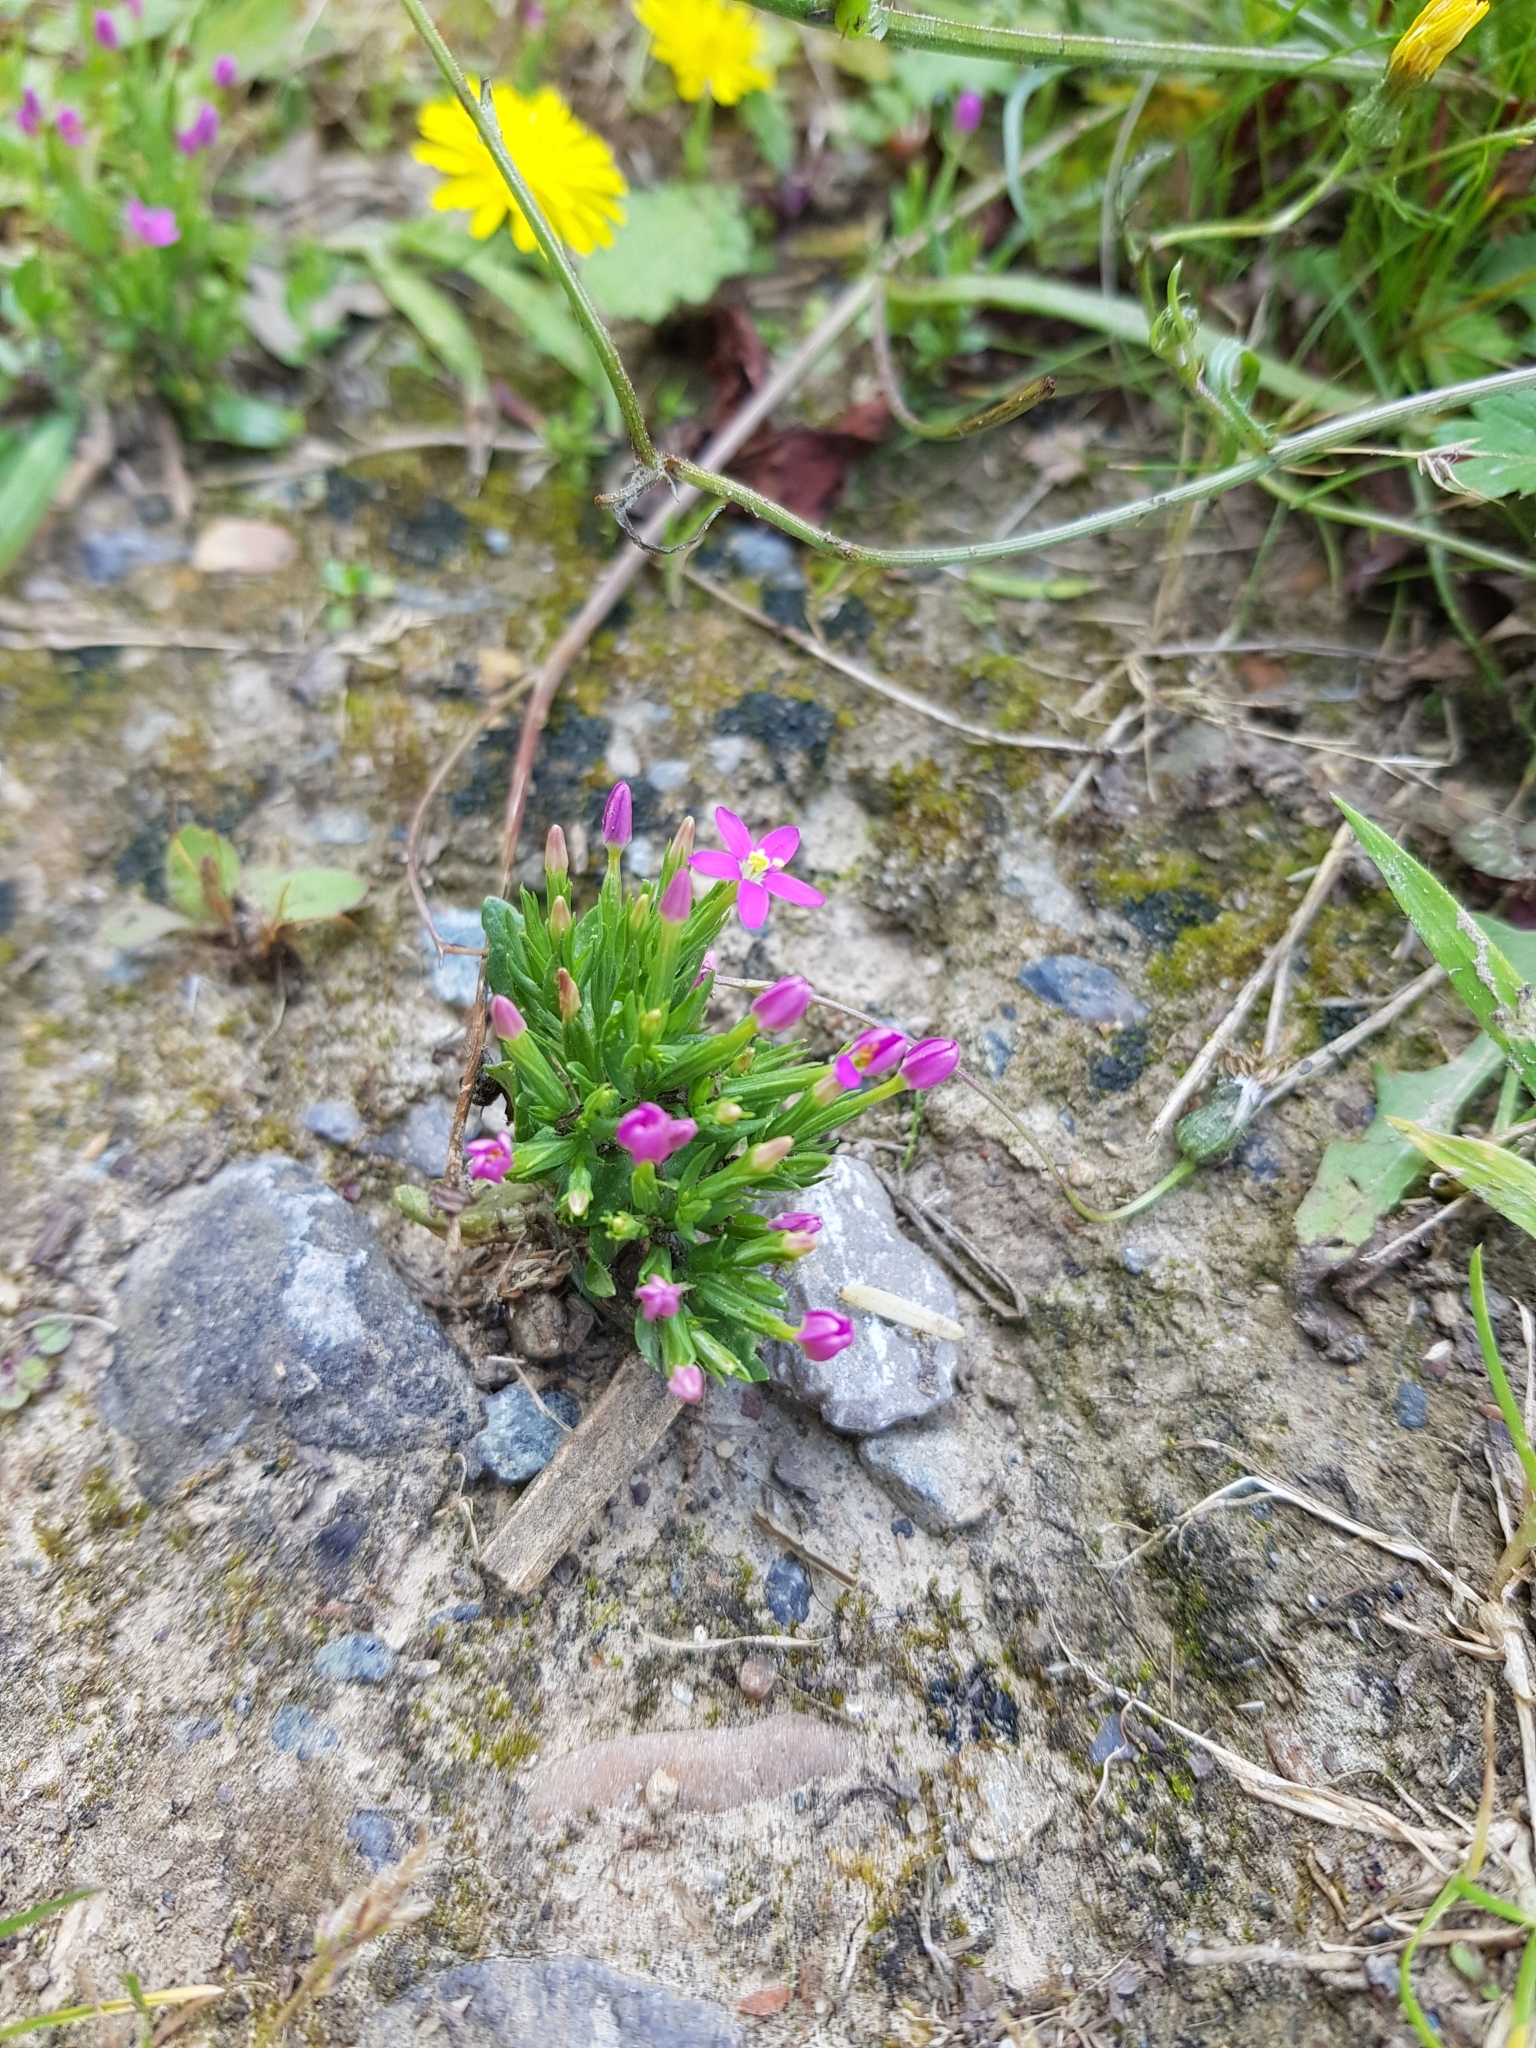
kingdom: Plantae
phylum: Tracheophyta
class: Magnoliopsida
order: Gentianales
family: Gentianaceae
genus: Centaurium
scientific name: Centaurium pulchellum
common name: Lesser centaury
